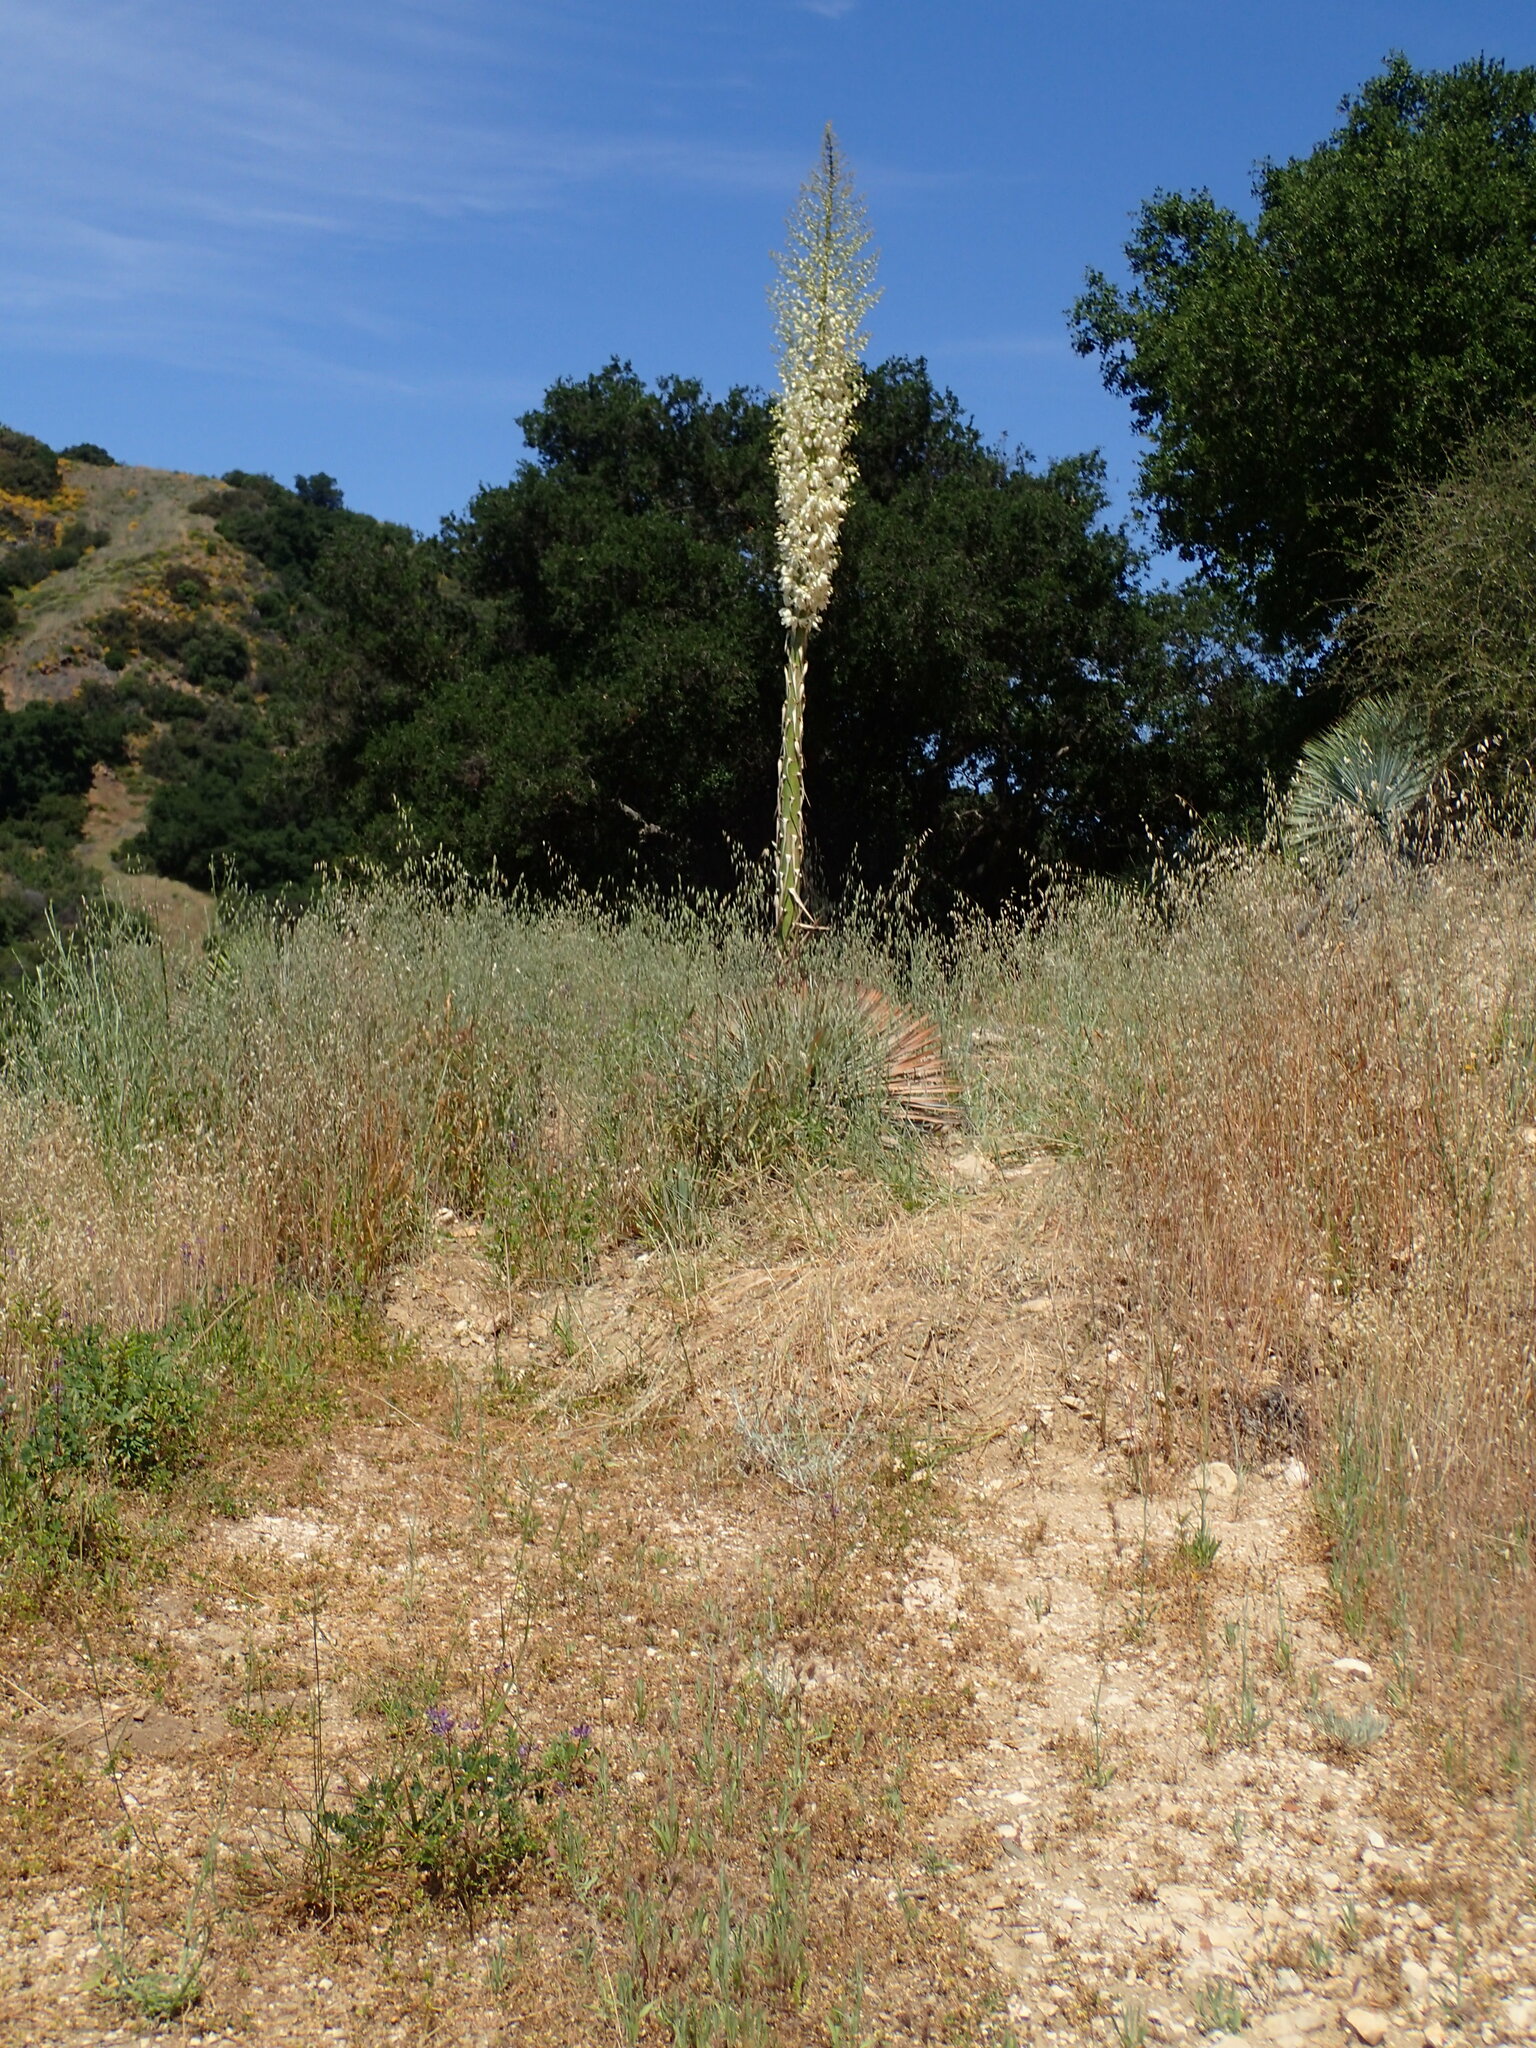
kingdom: Plantae
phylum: Tracheophyta
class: Liliopsida
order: Asparagales
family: Asparagaceae
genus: Hesperoyucca
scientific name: Hesperoyucca whipplei
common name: Our lord's-candle
